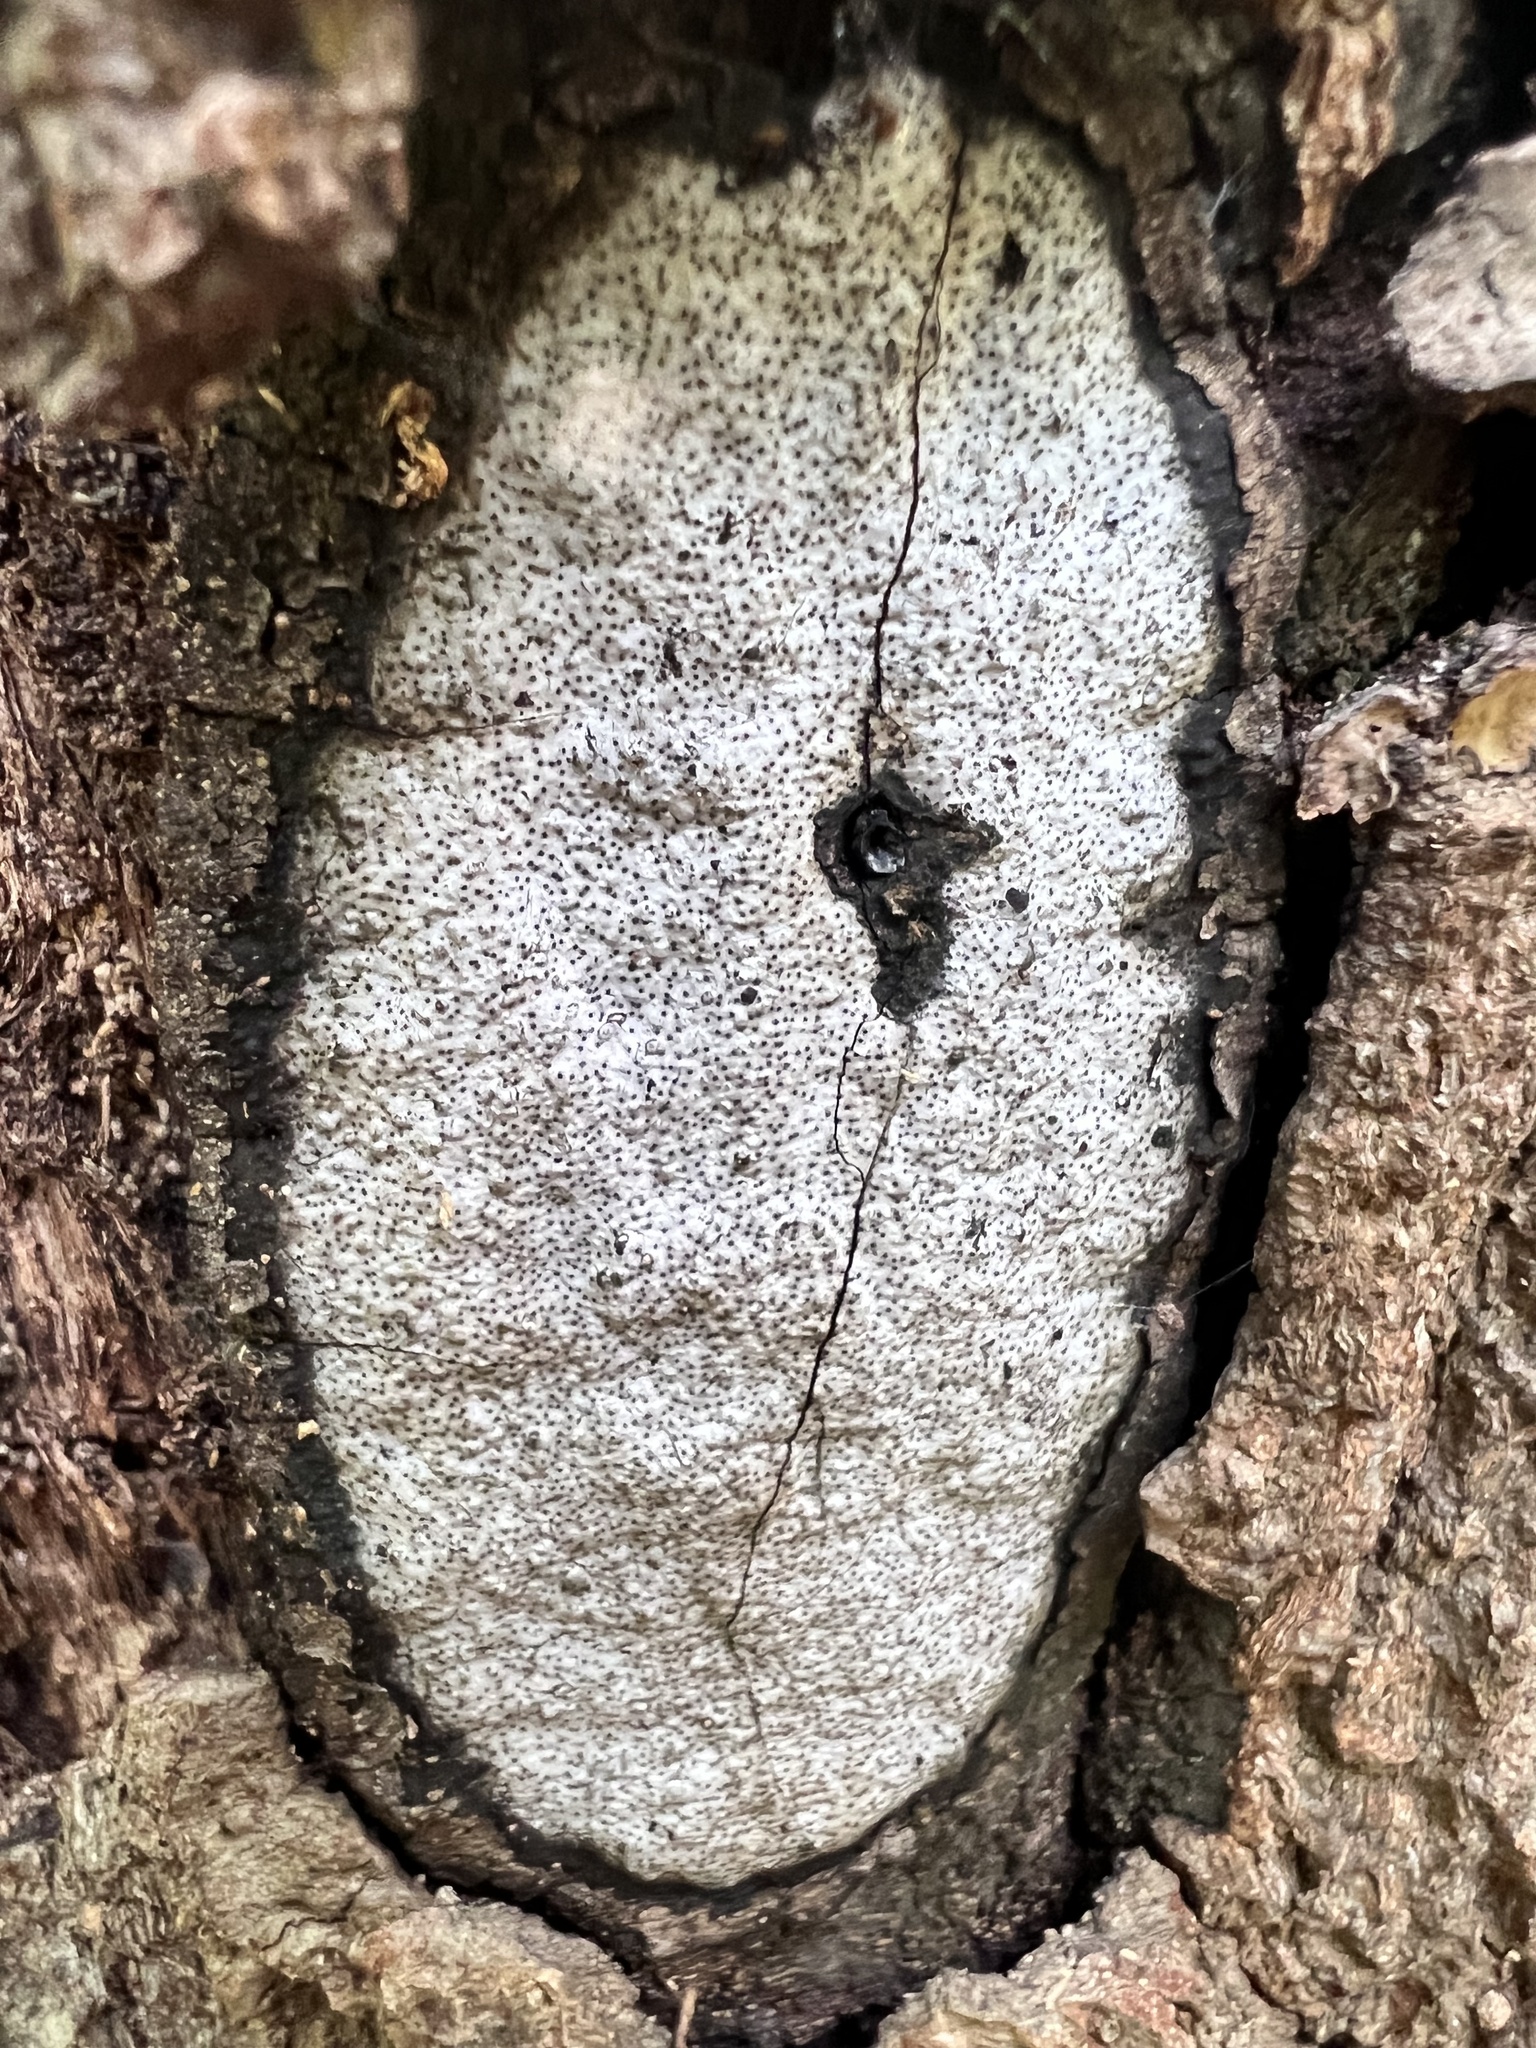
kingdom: Fungi
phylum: Ascomycota
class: Sordariomycetes
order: Xylariales
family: Graphostromataceae
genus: Biscogniauxia
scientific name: Biscogniauxia atropunctata
